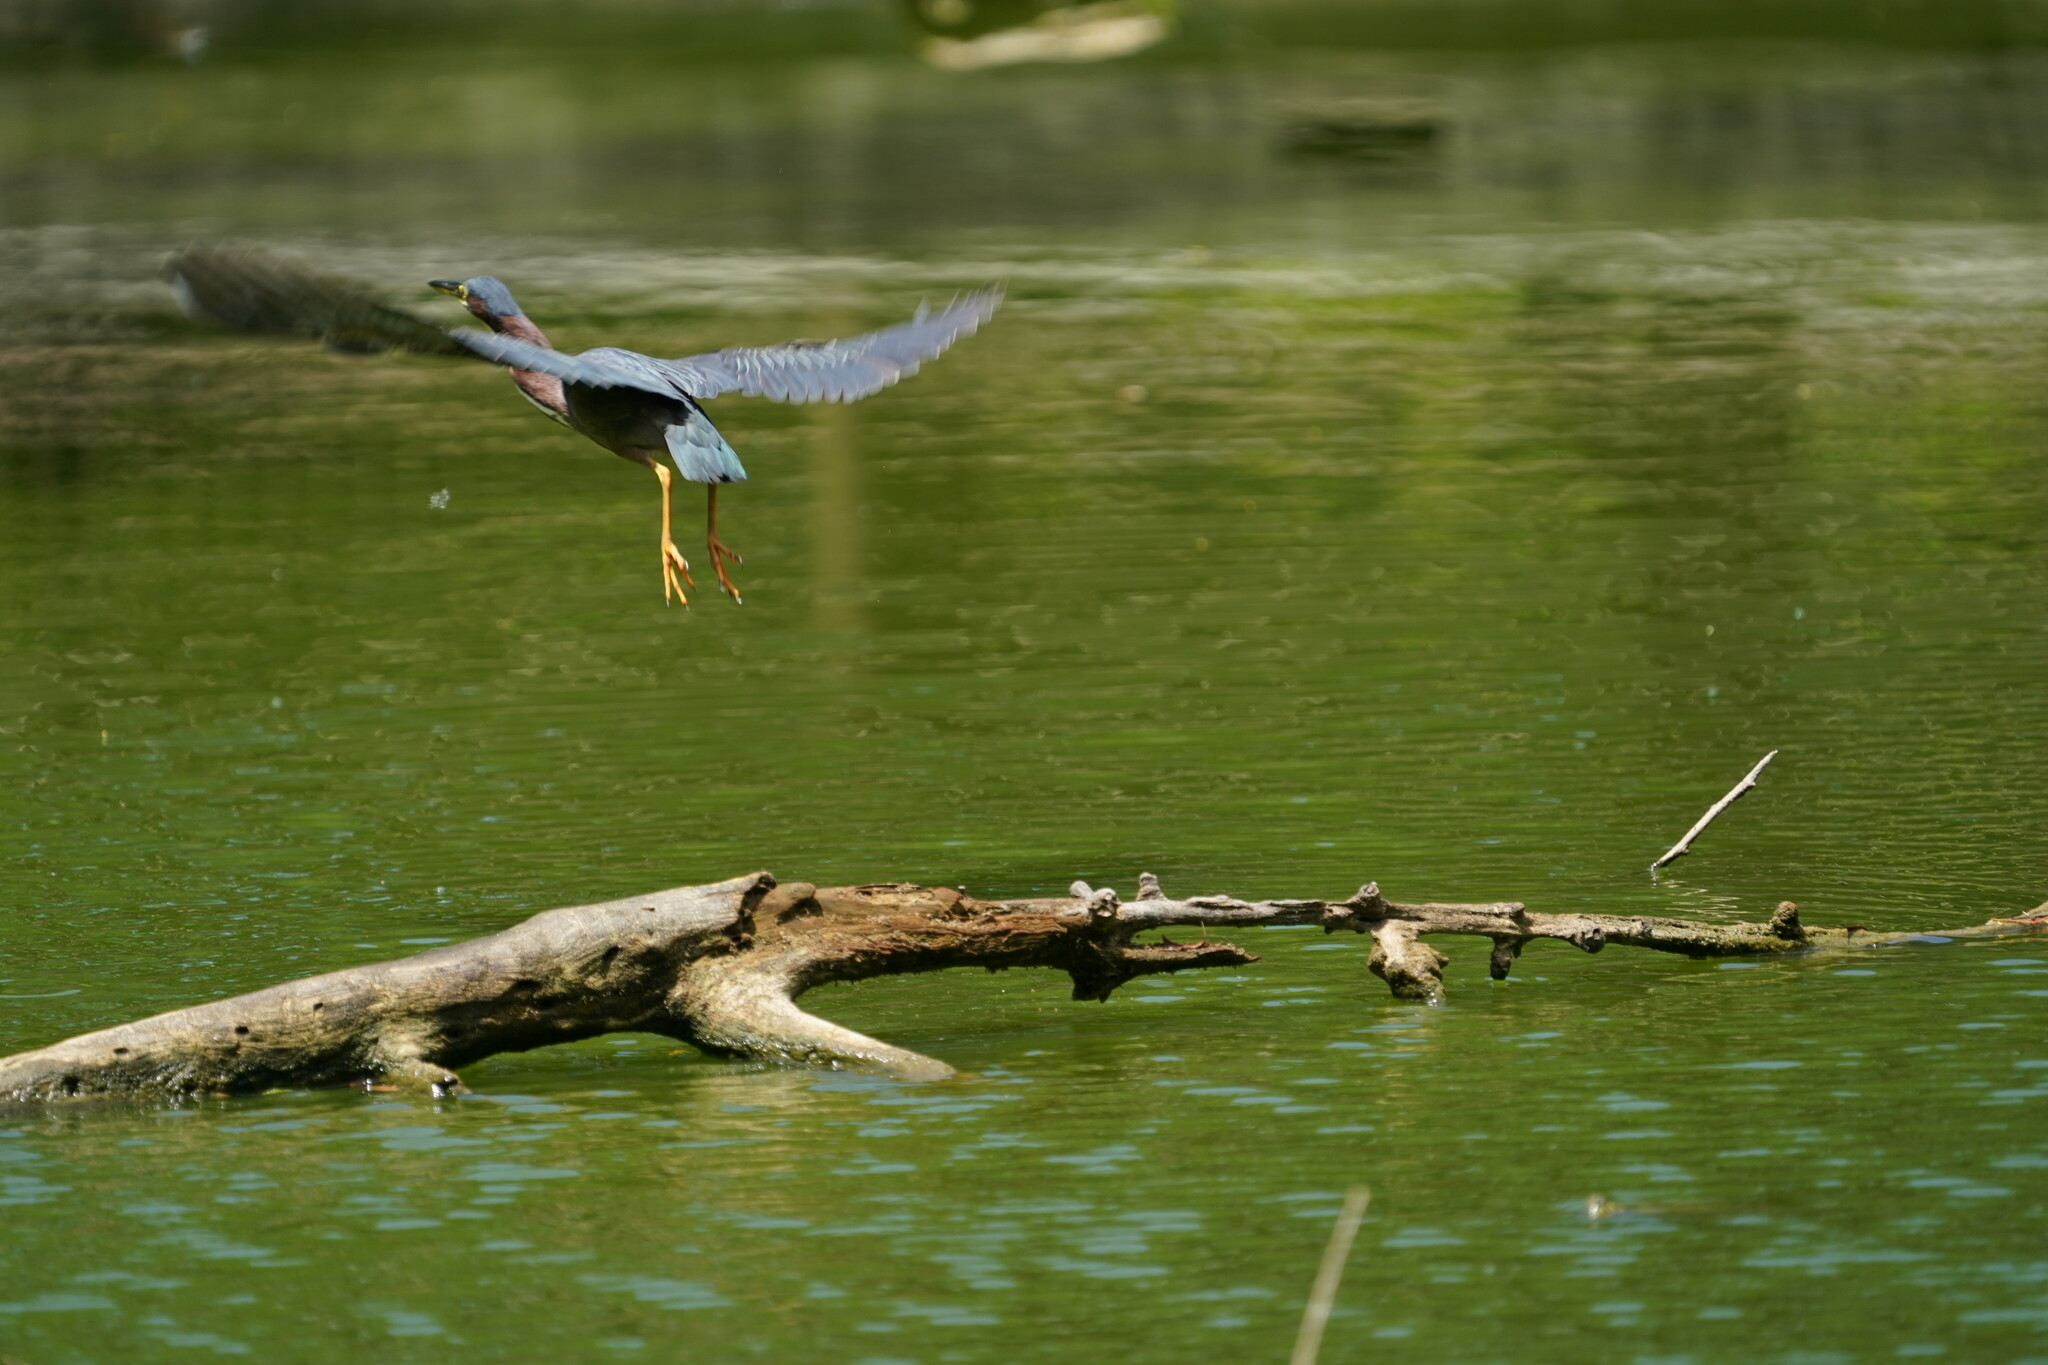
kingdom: Animalia
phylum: Chordata
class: Aves
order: Pelecaniformes
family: Ardeidae
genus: Butorides
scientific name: Butorides virescens
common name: Green heron
